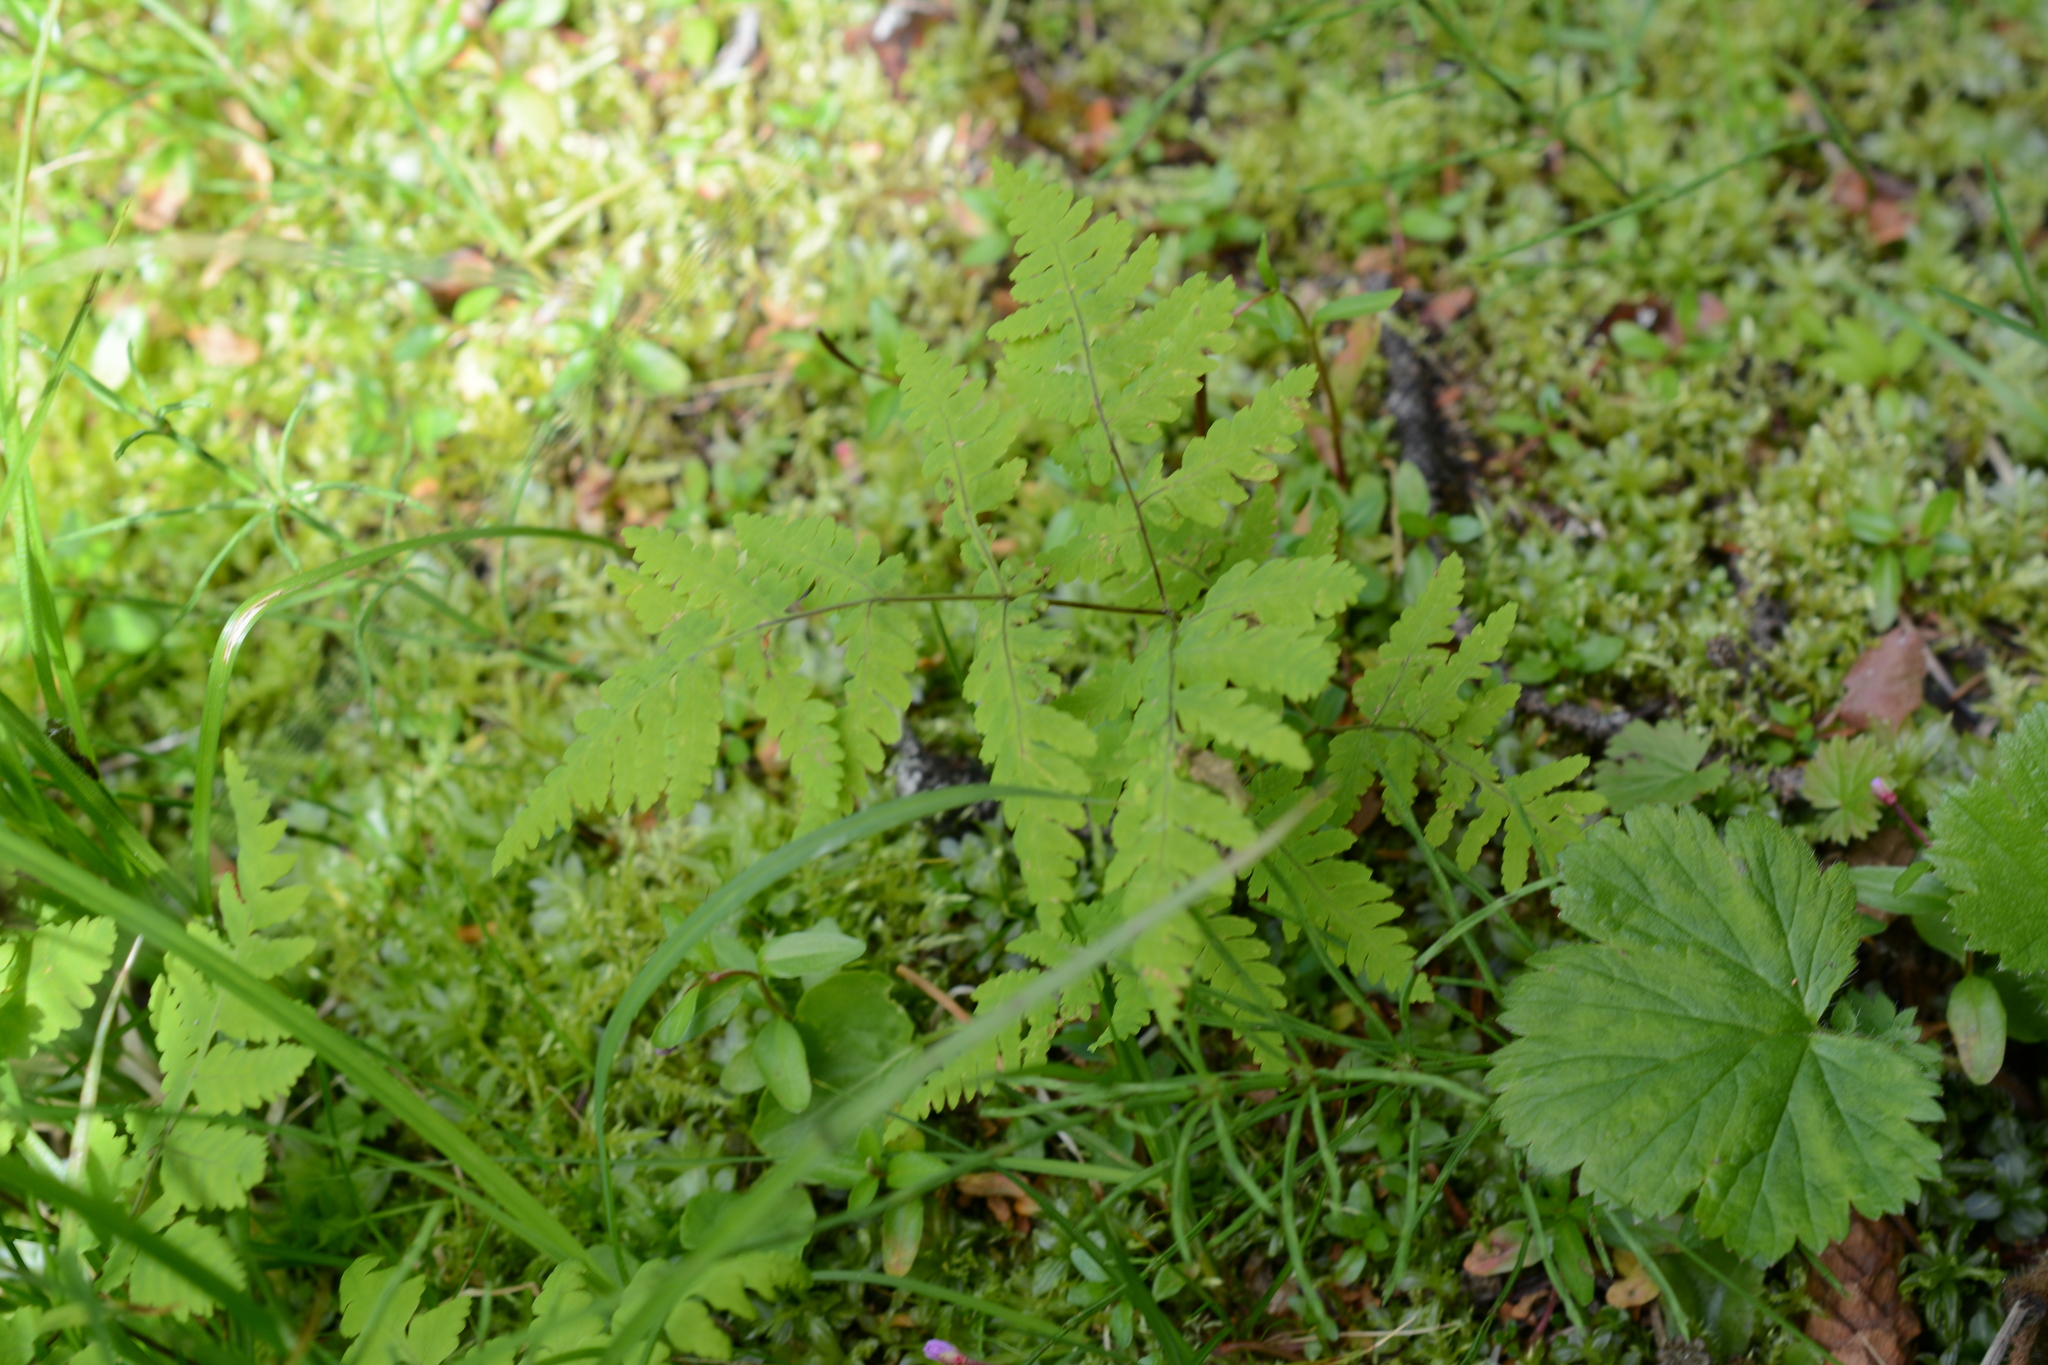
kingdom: Plantae
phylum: Tracheophyta
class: Polypodiopsida
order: Polypodiales
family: Cystopteridaceae
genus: Gymnocarpium
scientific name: Gymnocarpium dryopteris
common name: Oak fern
